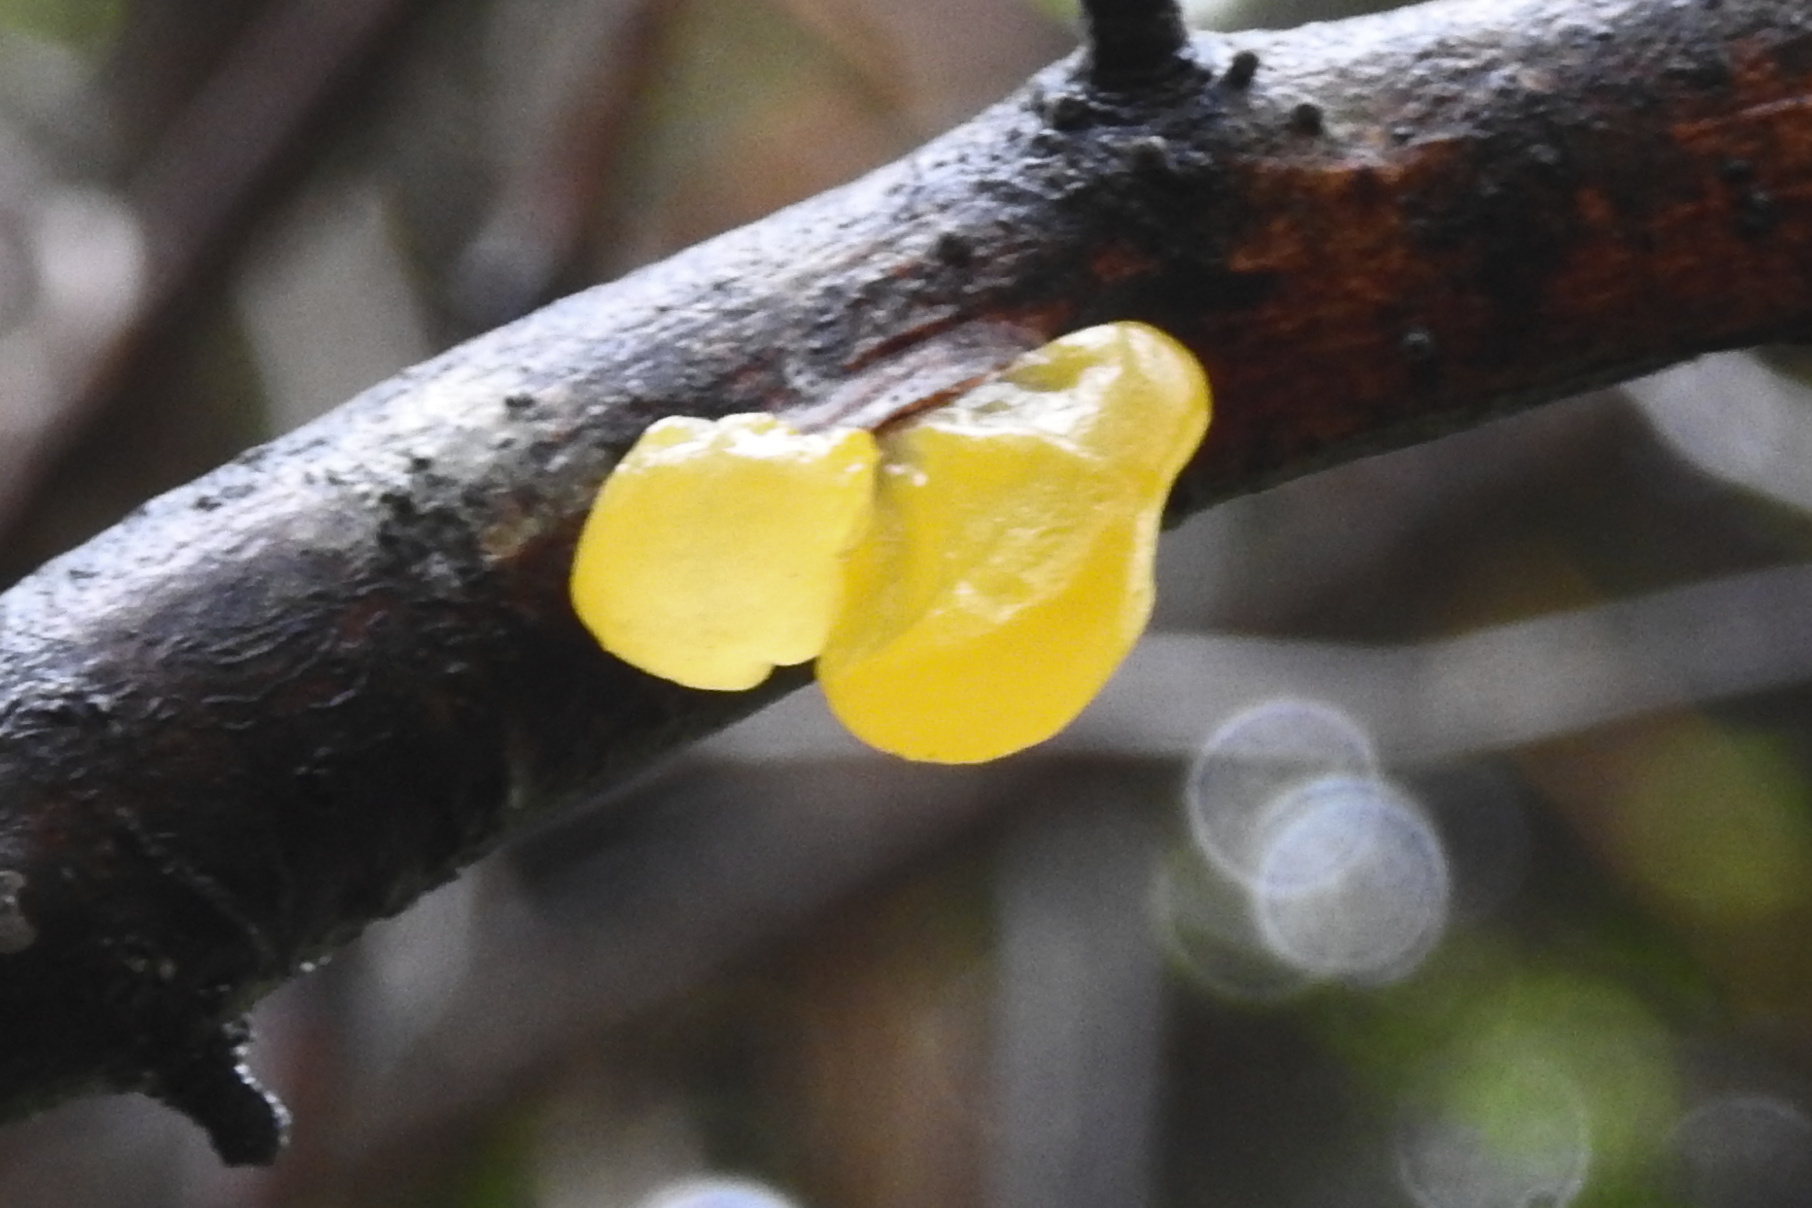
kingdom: Fungi
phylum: Basidiomycota
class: Tremellomycetes
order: Tremellales
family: Tremellaceae
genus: Tremella
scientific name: Tremella mesenterica
